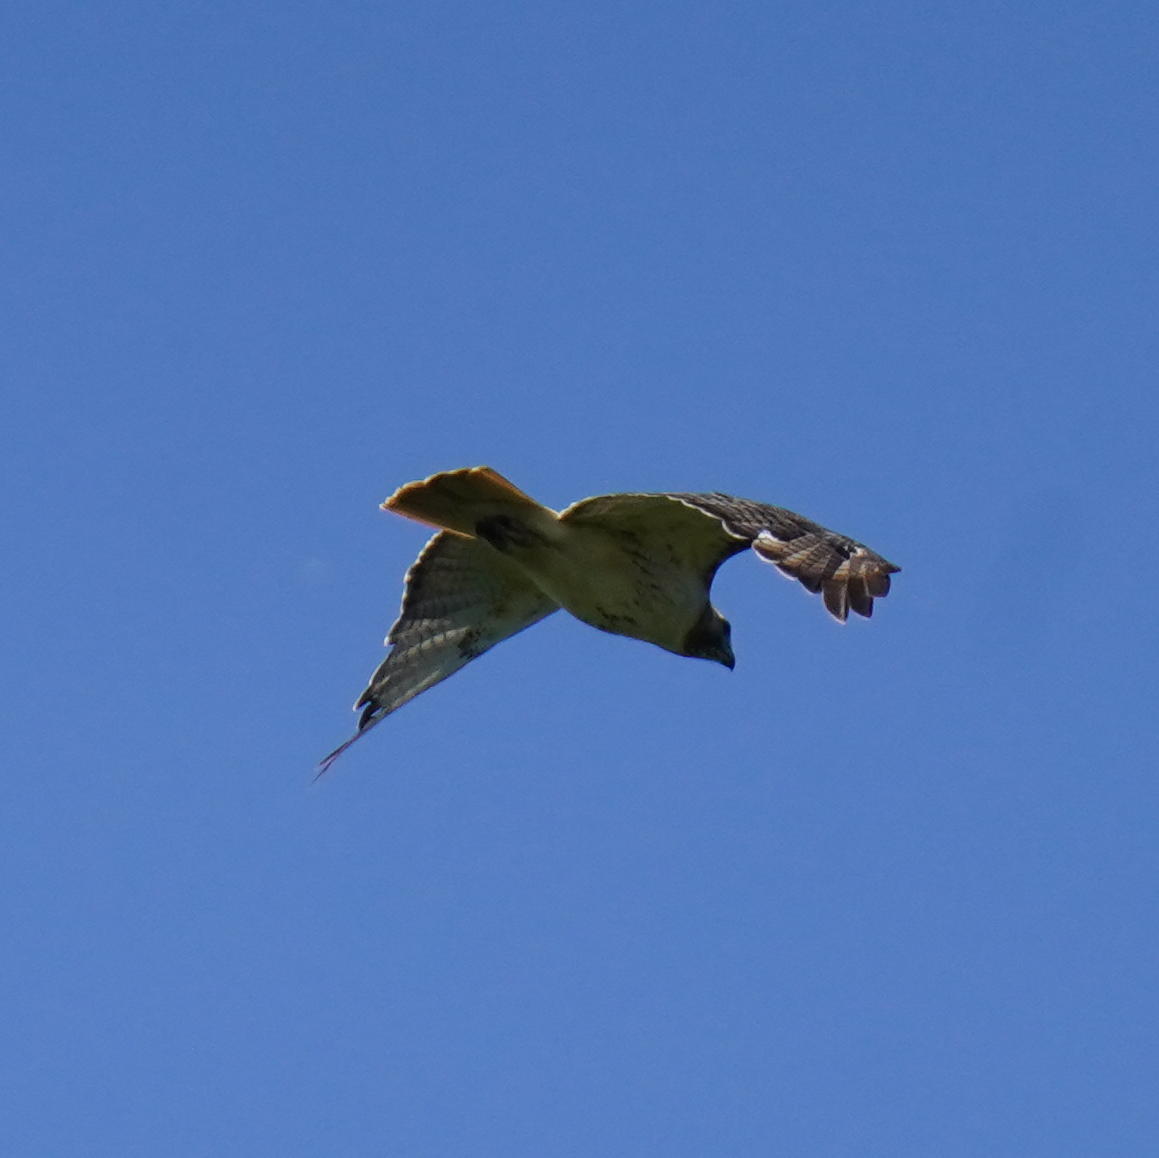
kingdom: Animalia
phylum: Chordata
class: Aves
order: Accipitriformes
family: Accipitridae
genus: Buteo
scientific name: Buteo jamaicensis
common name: Red-tailed hawk
